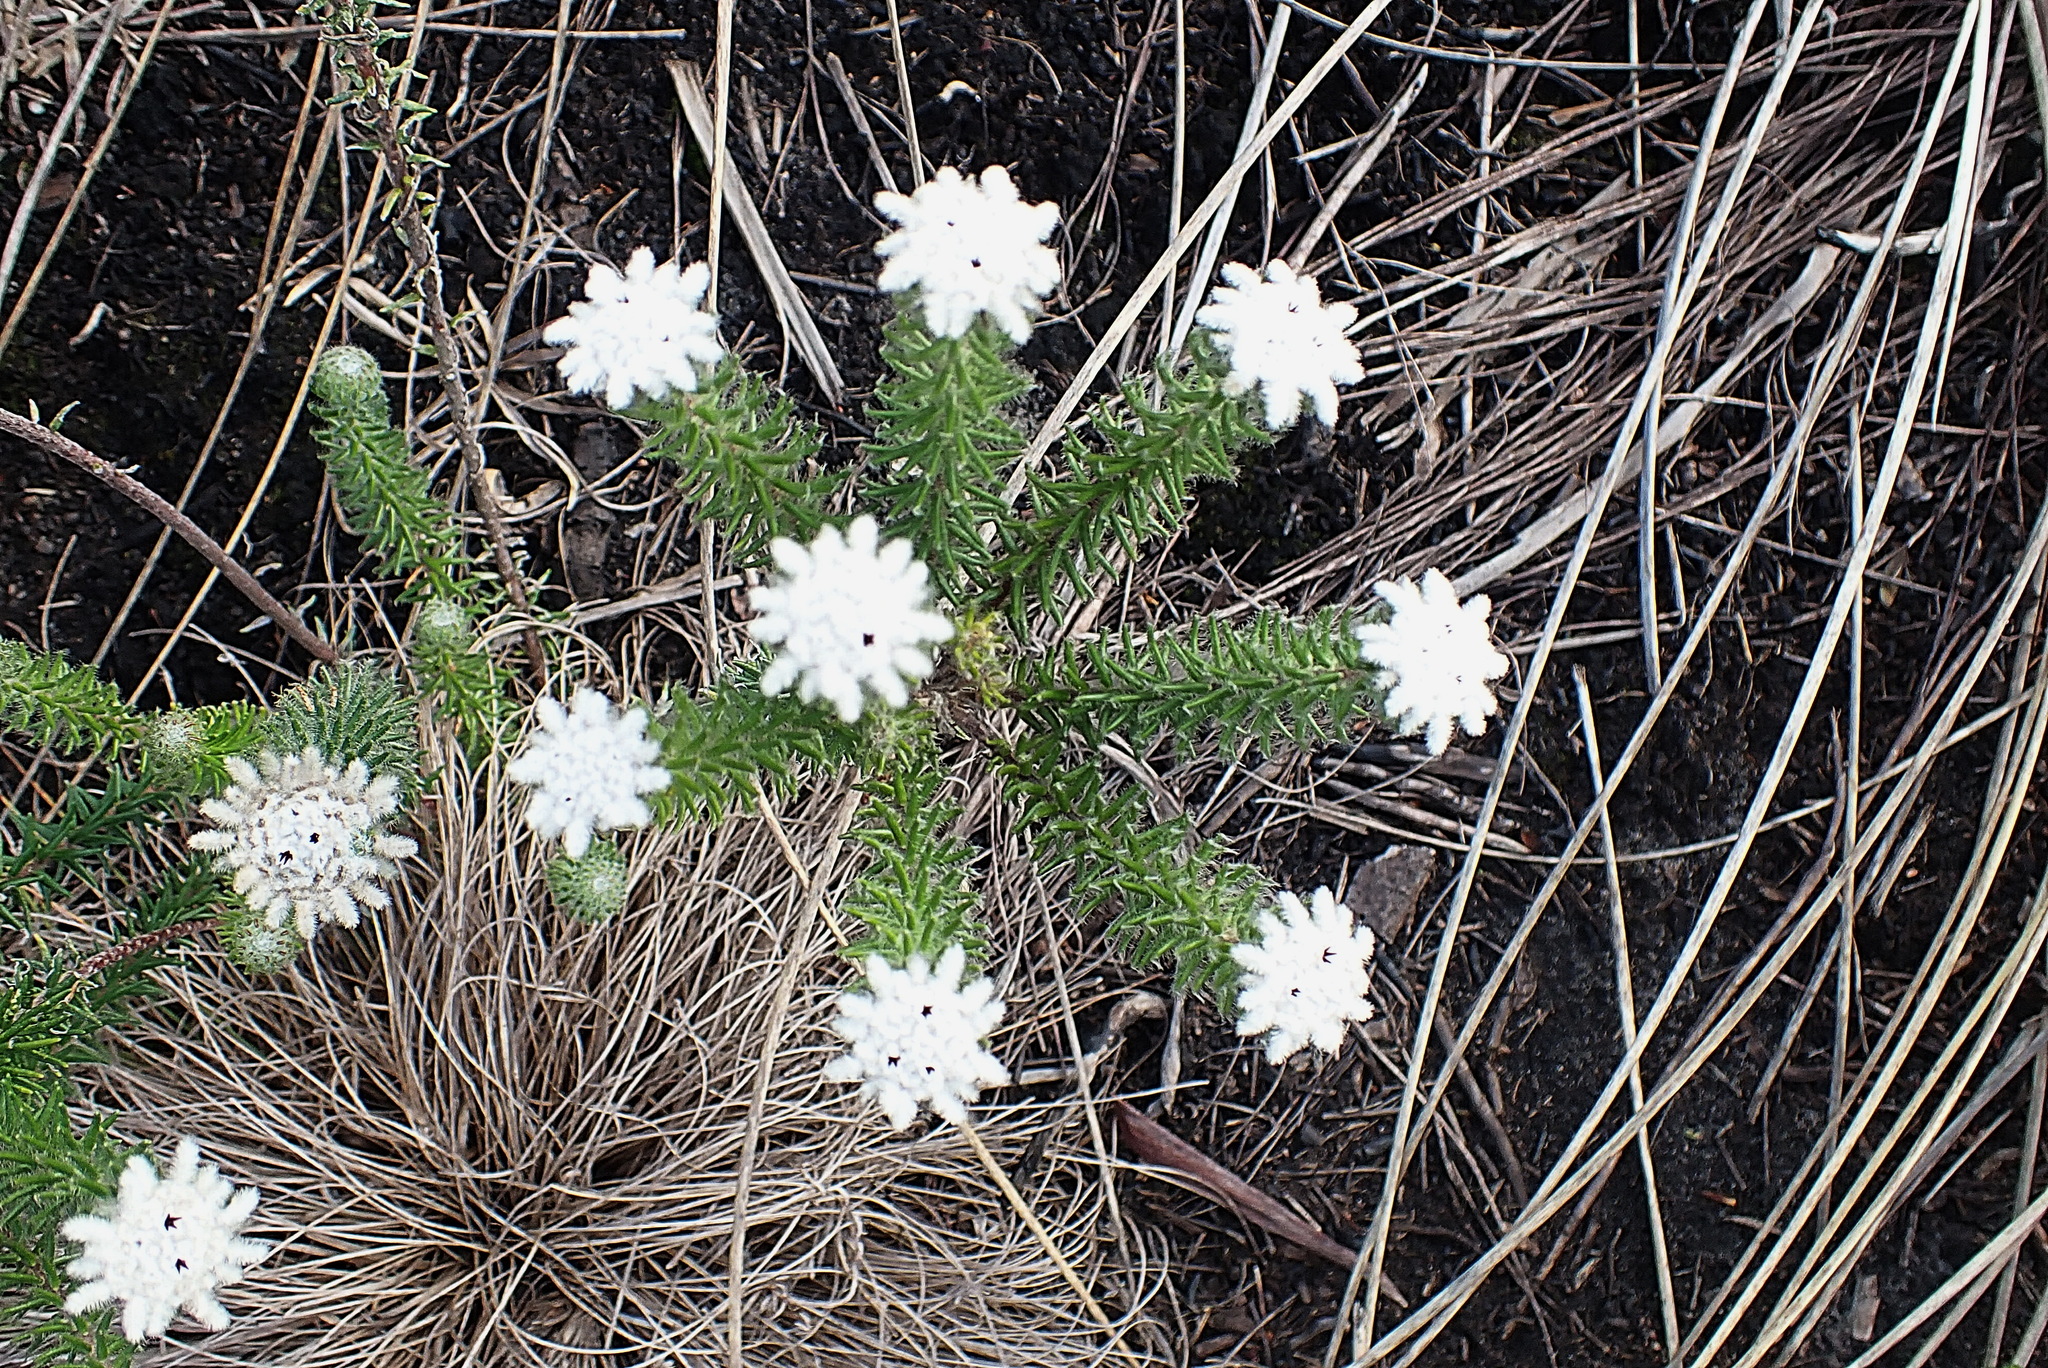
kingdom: Plantae
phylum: Tracheophyta
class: Magnoliopsida
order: Rosales
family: Rhamnaceae
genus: Phylica
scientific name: Phylica curvifolia
